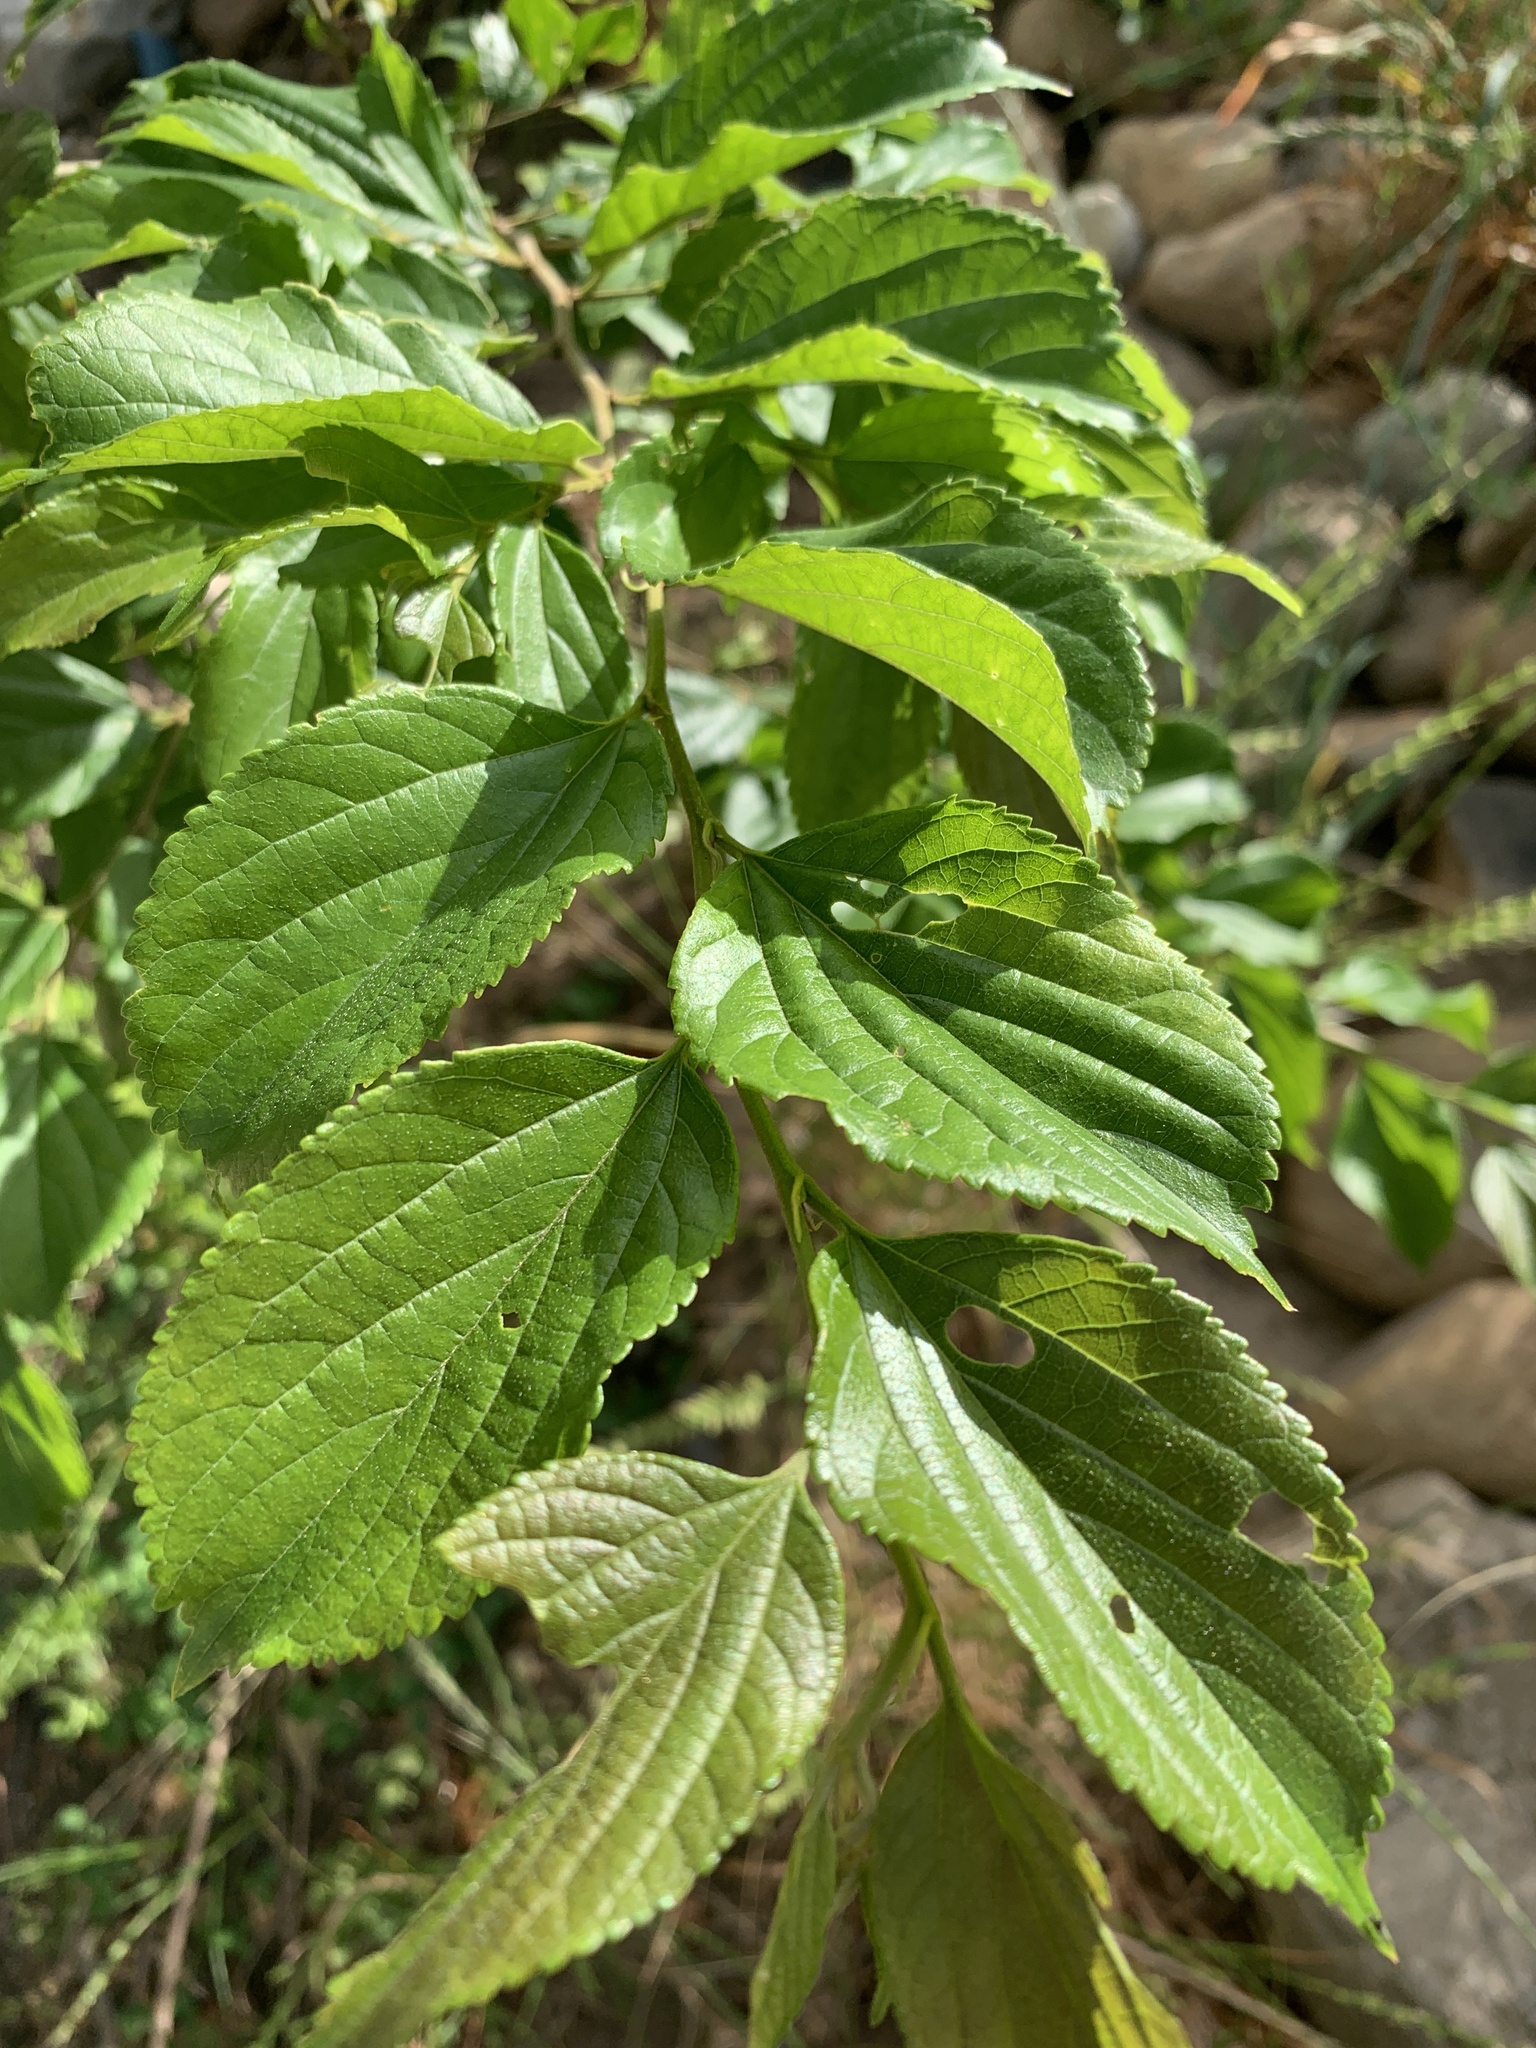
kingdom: Plantae
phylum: Tracheophyta
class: Magnoliopsida
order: Rosales
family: Cannabaceae
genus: Celtis
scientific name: Celtis sinensis
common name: Chinese hackberry
